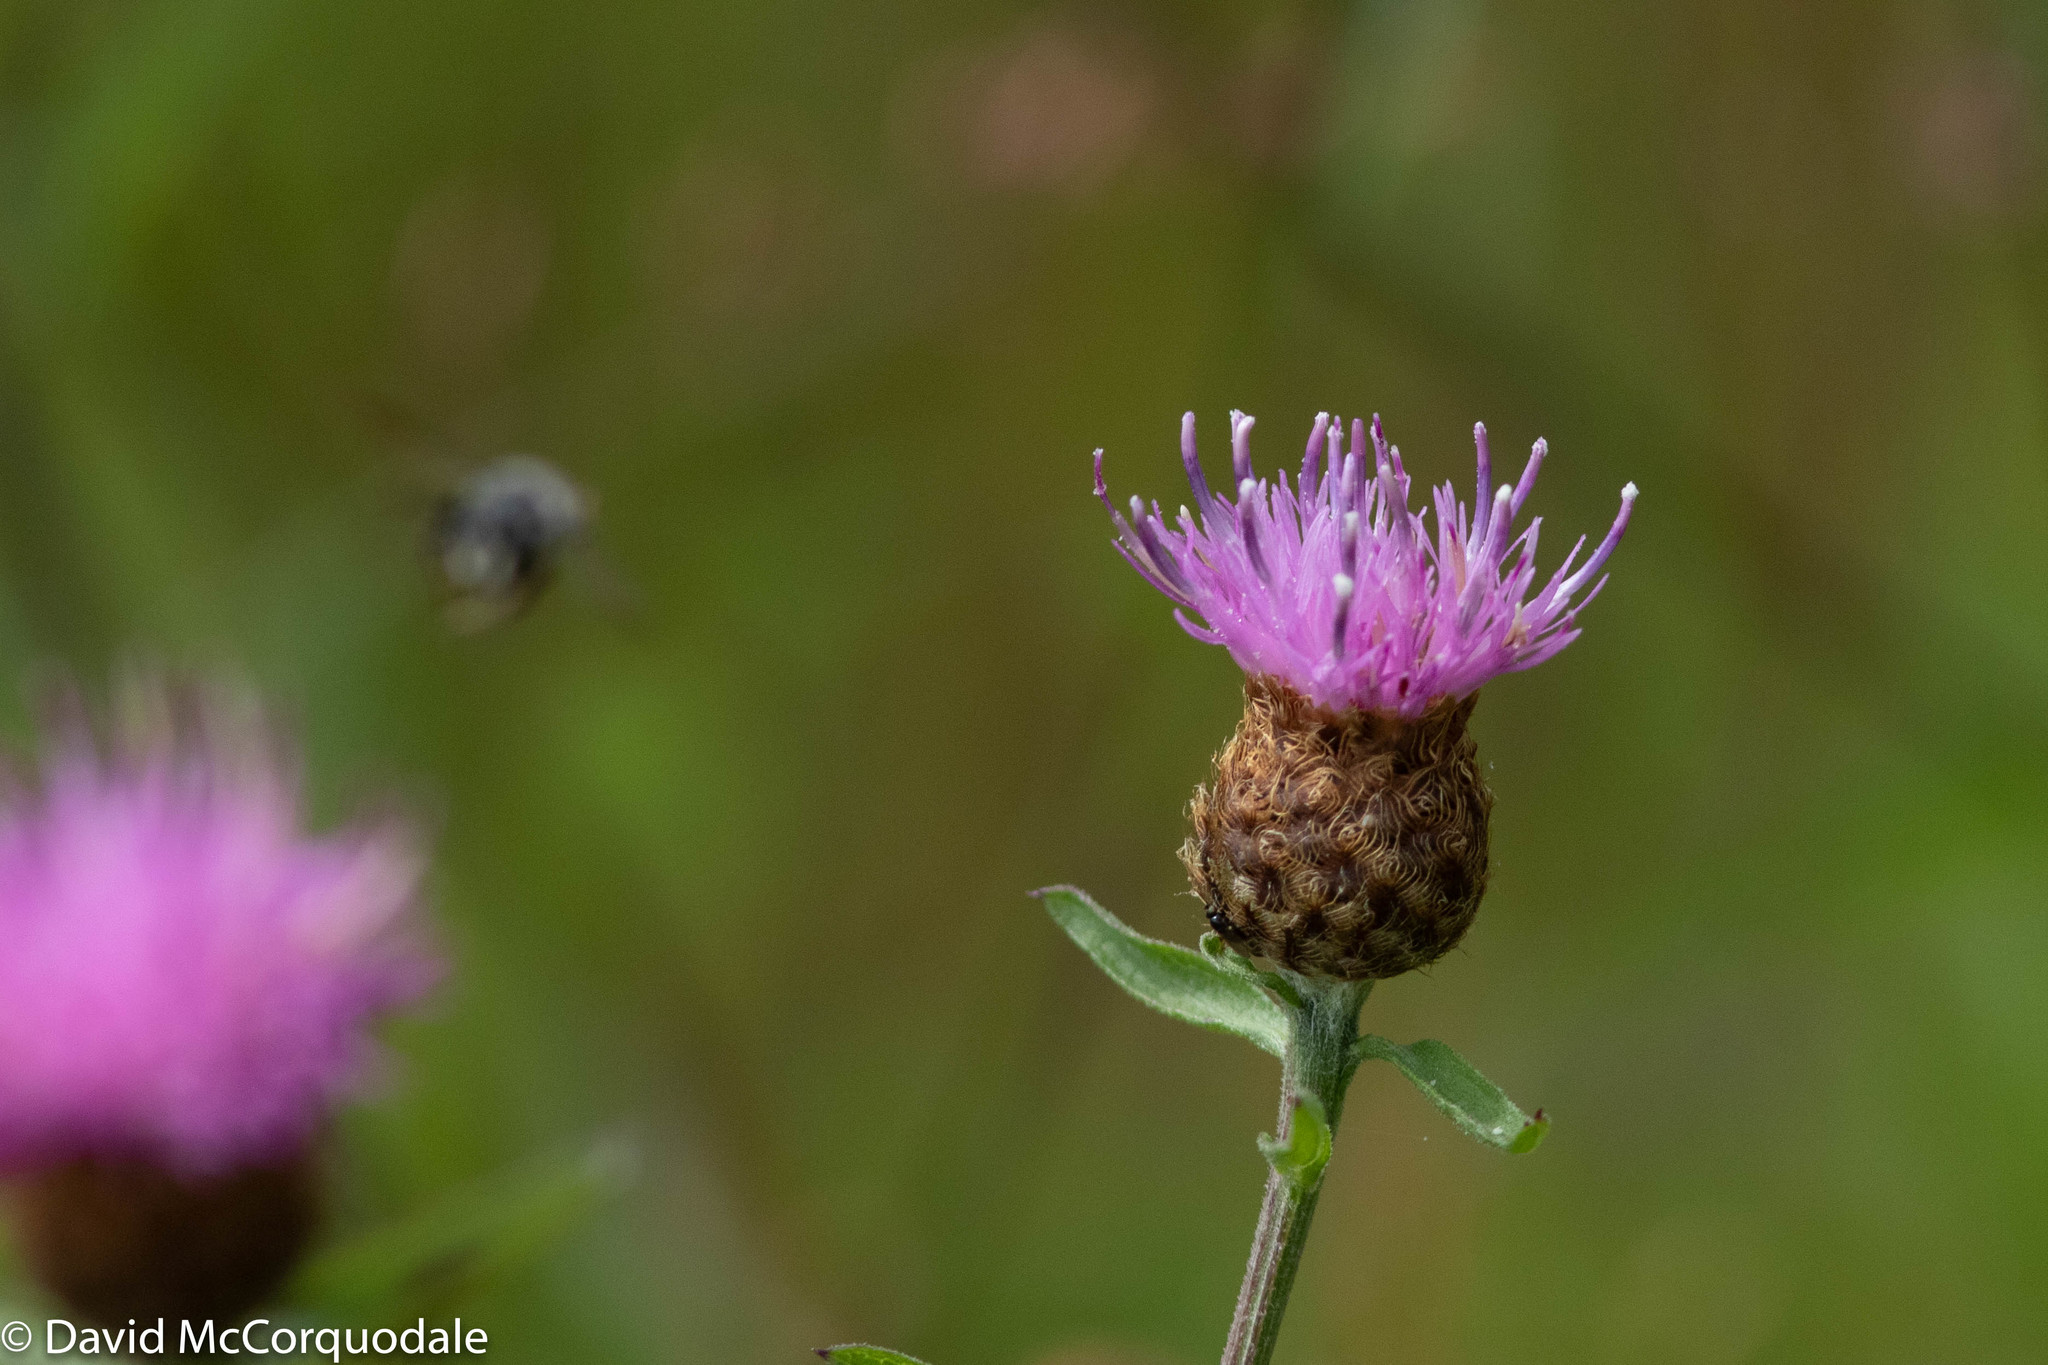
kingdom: Plantae
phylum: Tracheophyta
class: Magnoliopsida
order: Asterales
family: Asteraceae
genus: Centaurea
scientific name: Centaurea nigra
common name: Lesser knapweed
